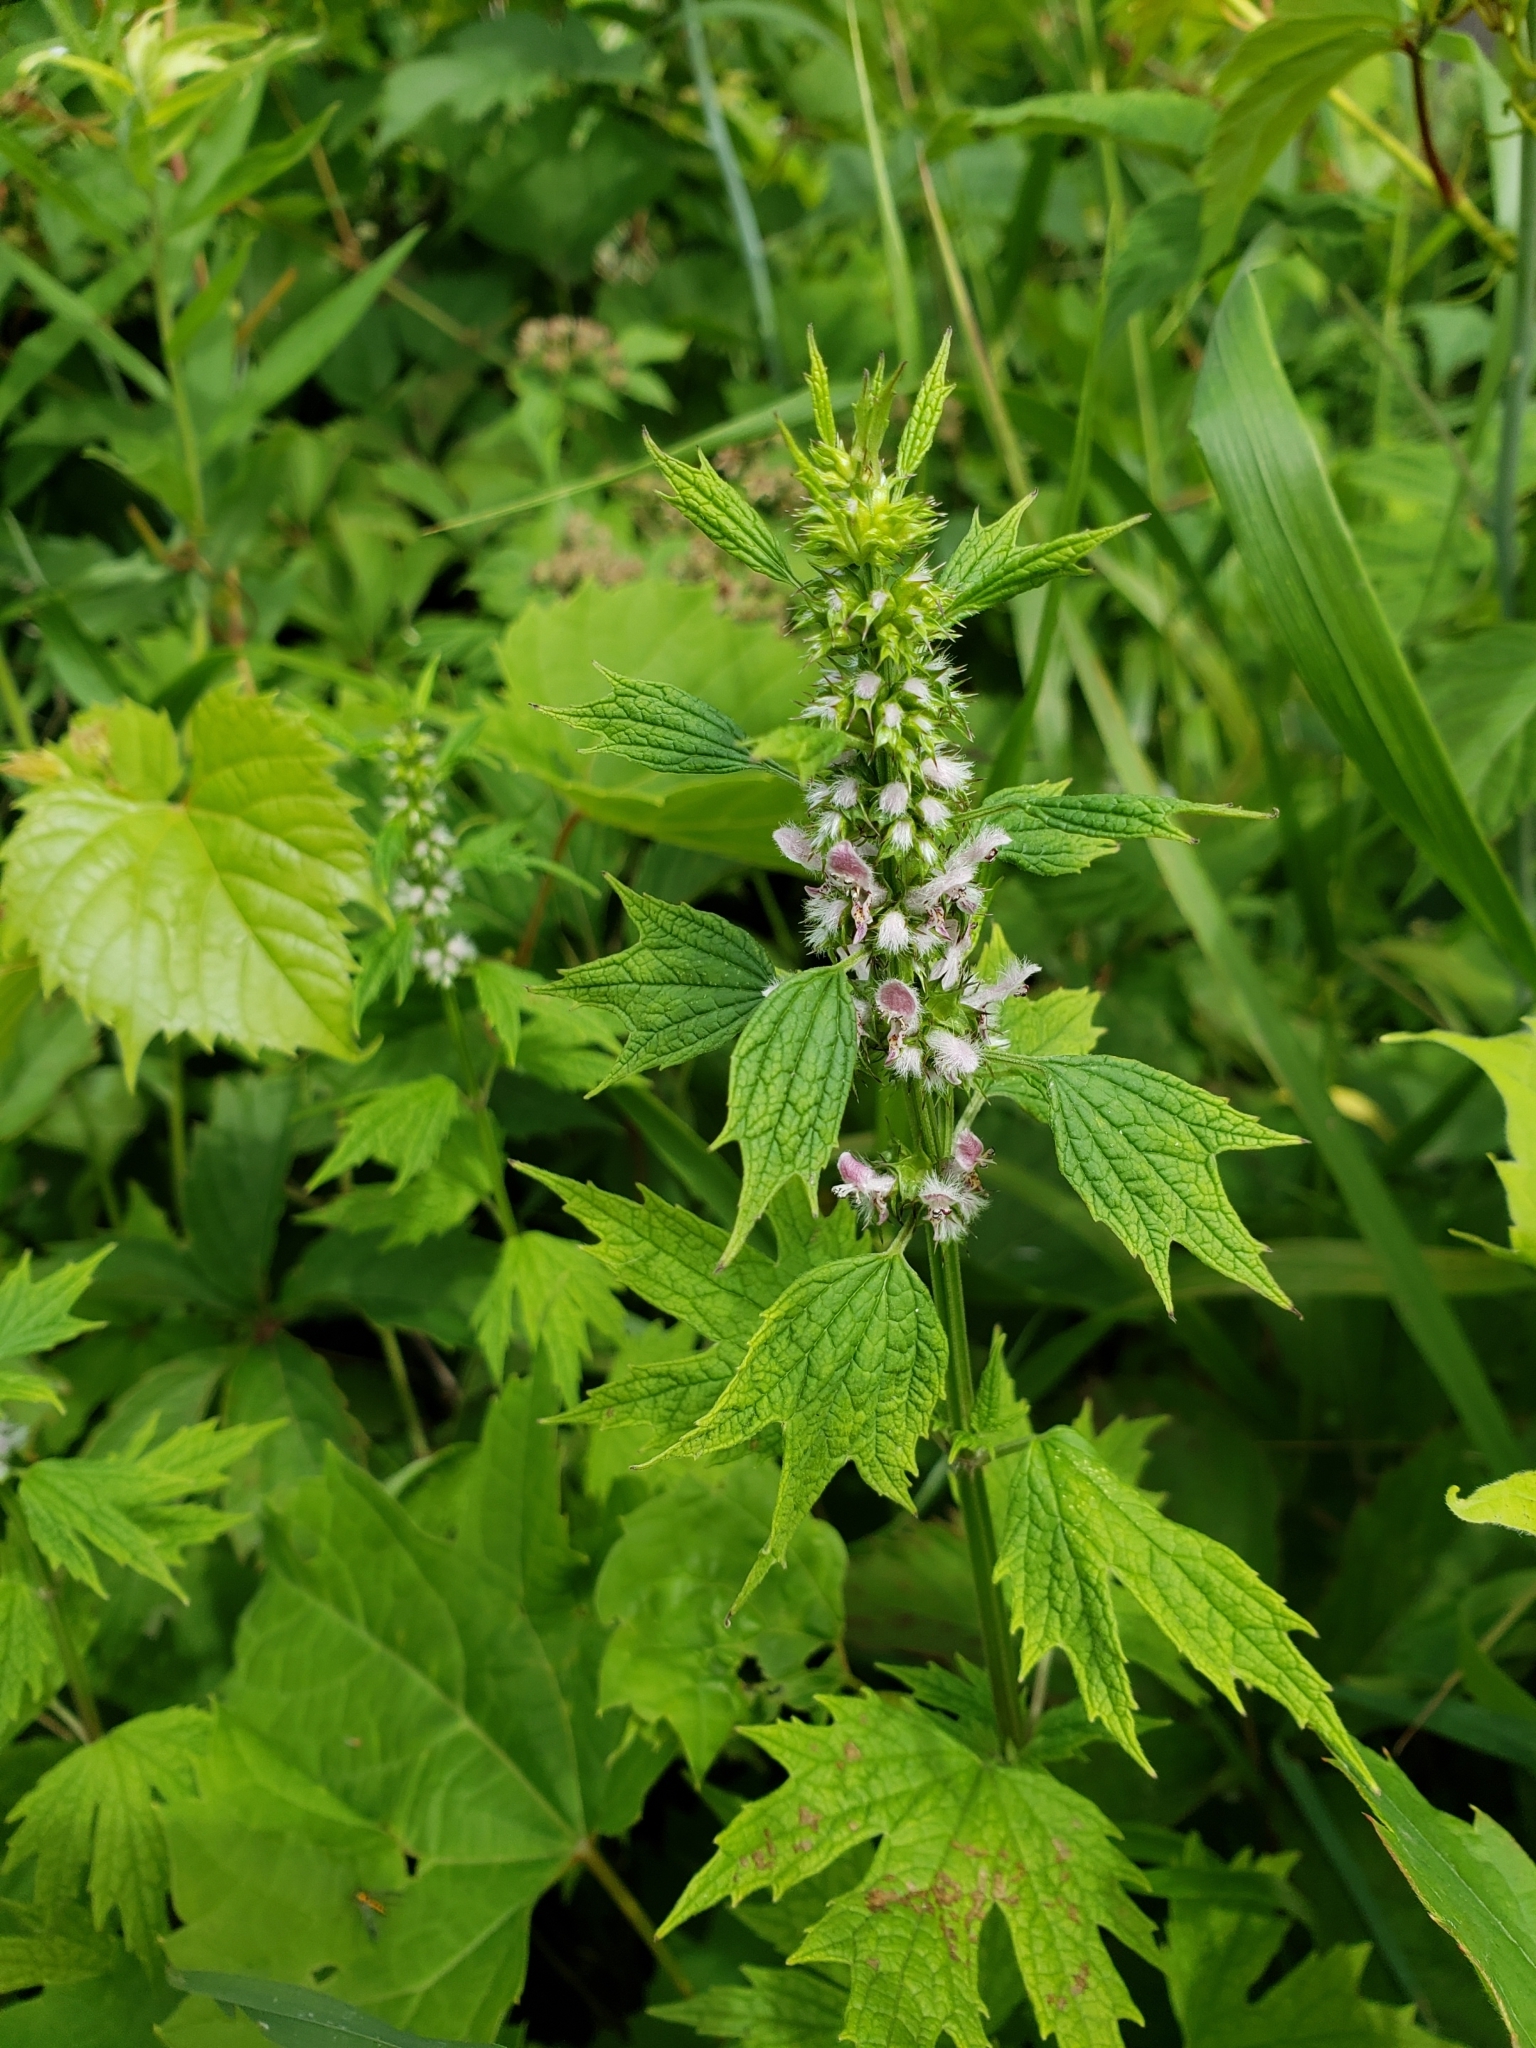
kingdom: Plantae
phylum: Tracheophyta
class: Magnoliopsida
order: Lamiales
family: Lamiaceae
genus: Leonurus
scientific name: Leonurus cardiaca
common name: Motherwort
